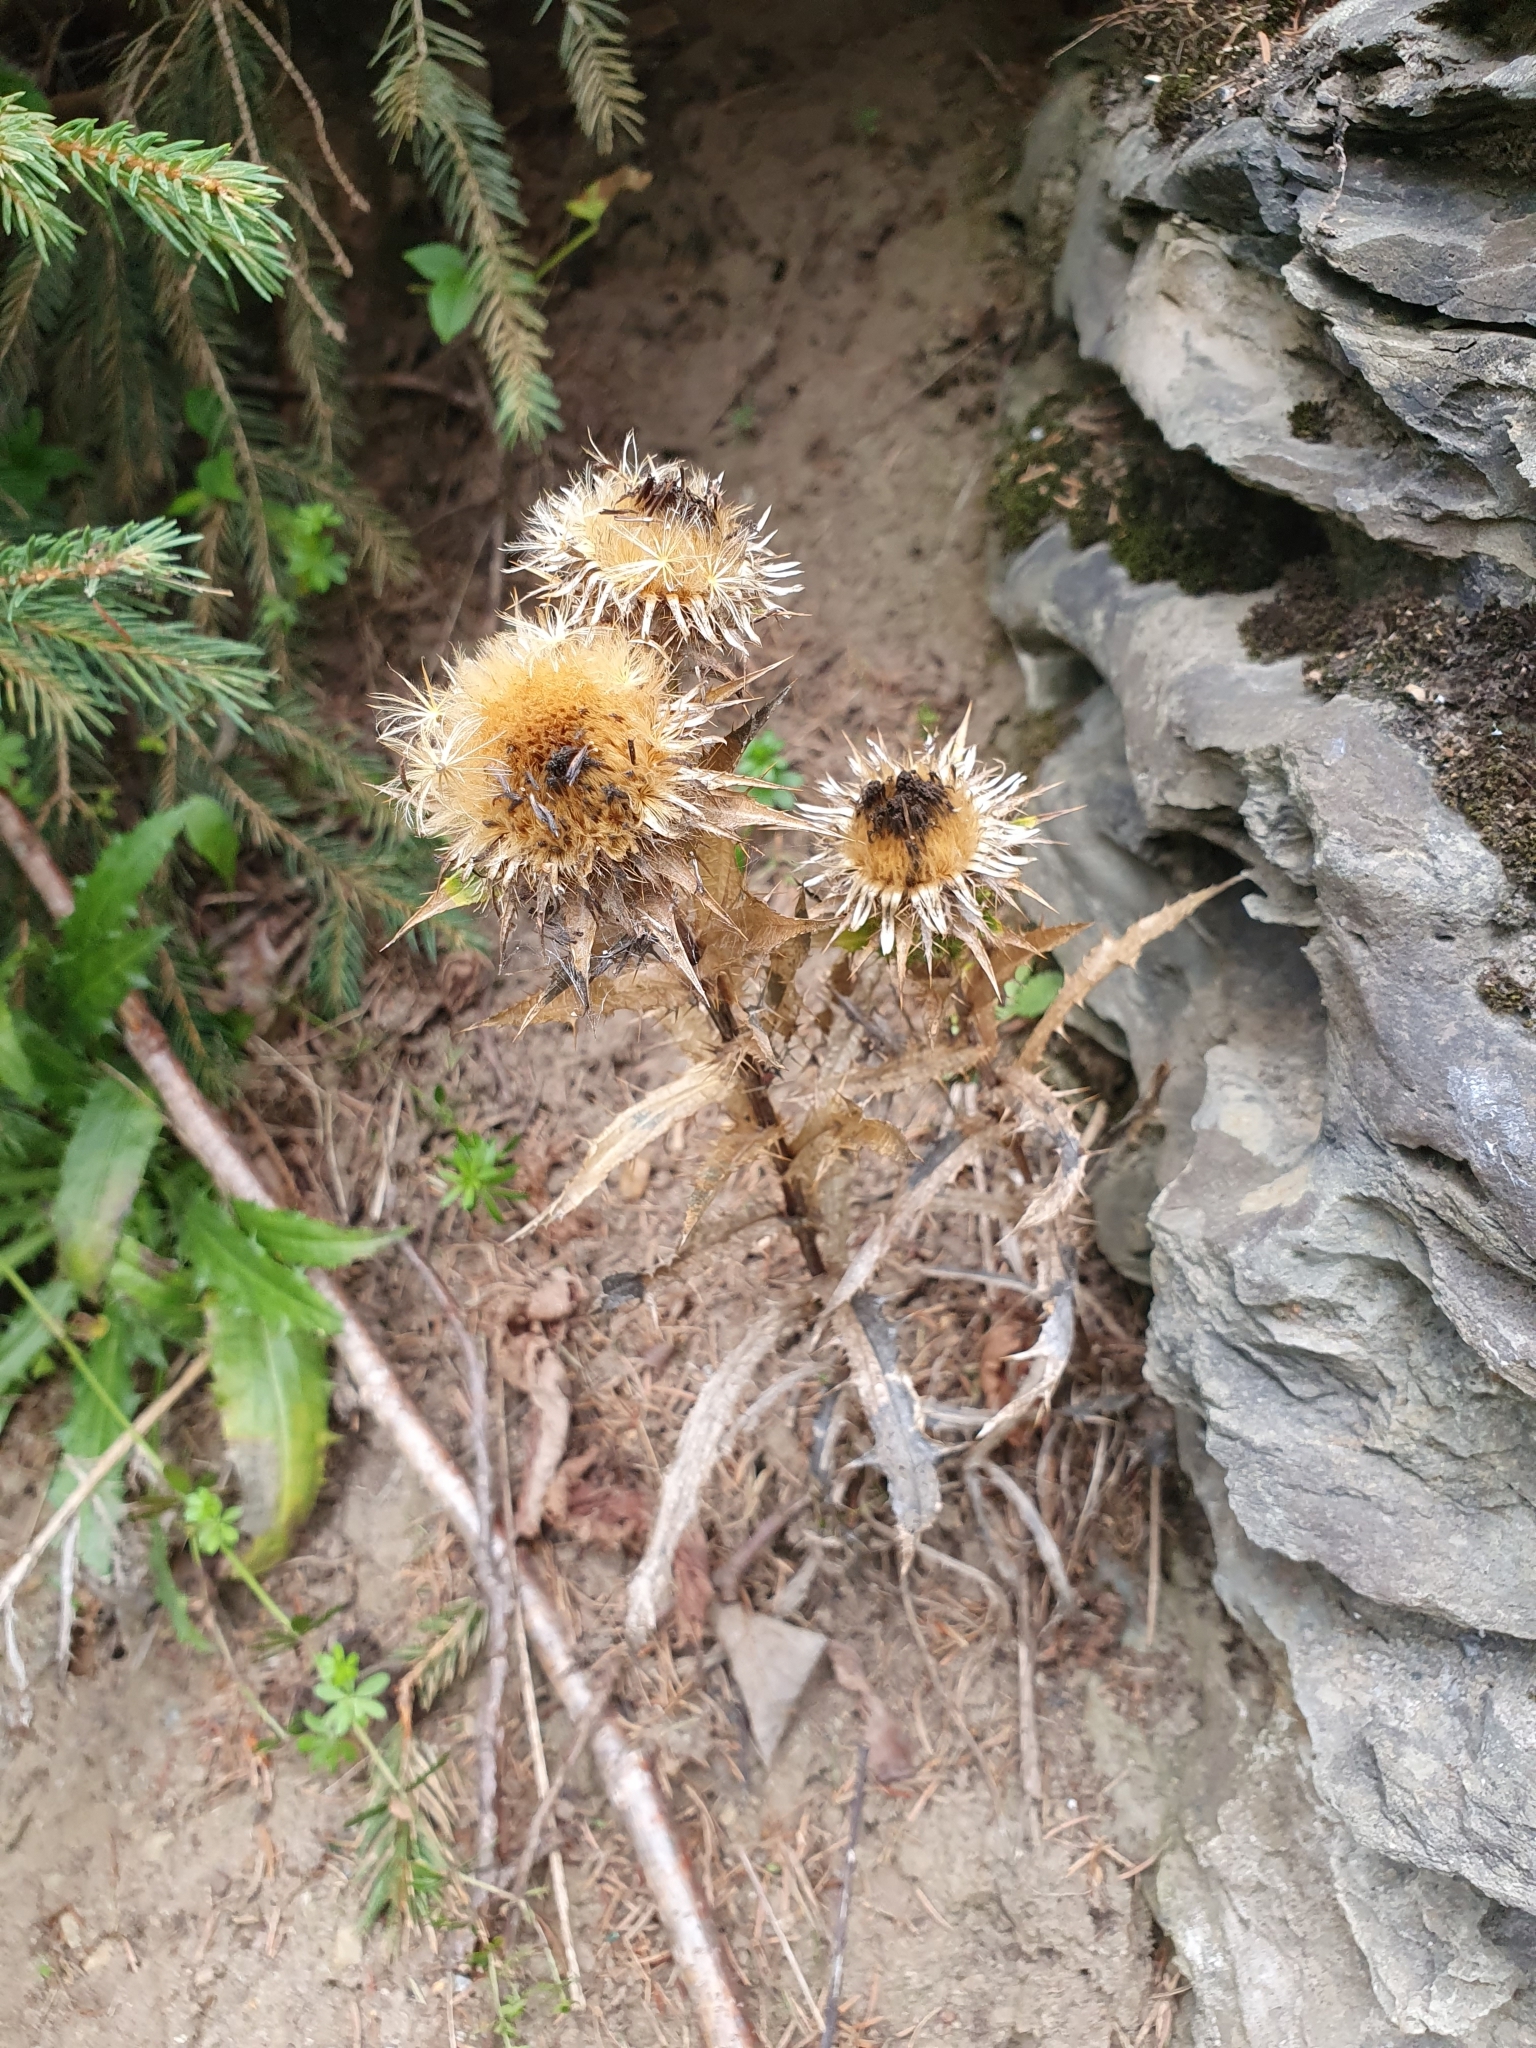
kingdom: Plantae
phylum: Tracheophyta
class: Magnoliopsida
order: Asterales
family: Asteraceae
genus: Carlina
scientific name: Carlina vulgaris
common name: Carline thistle
